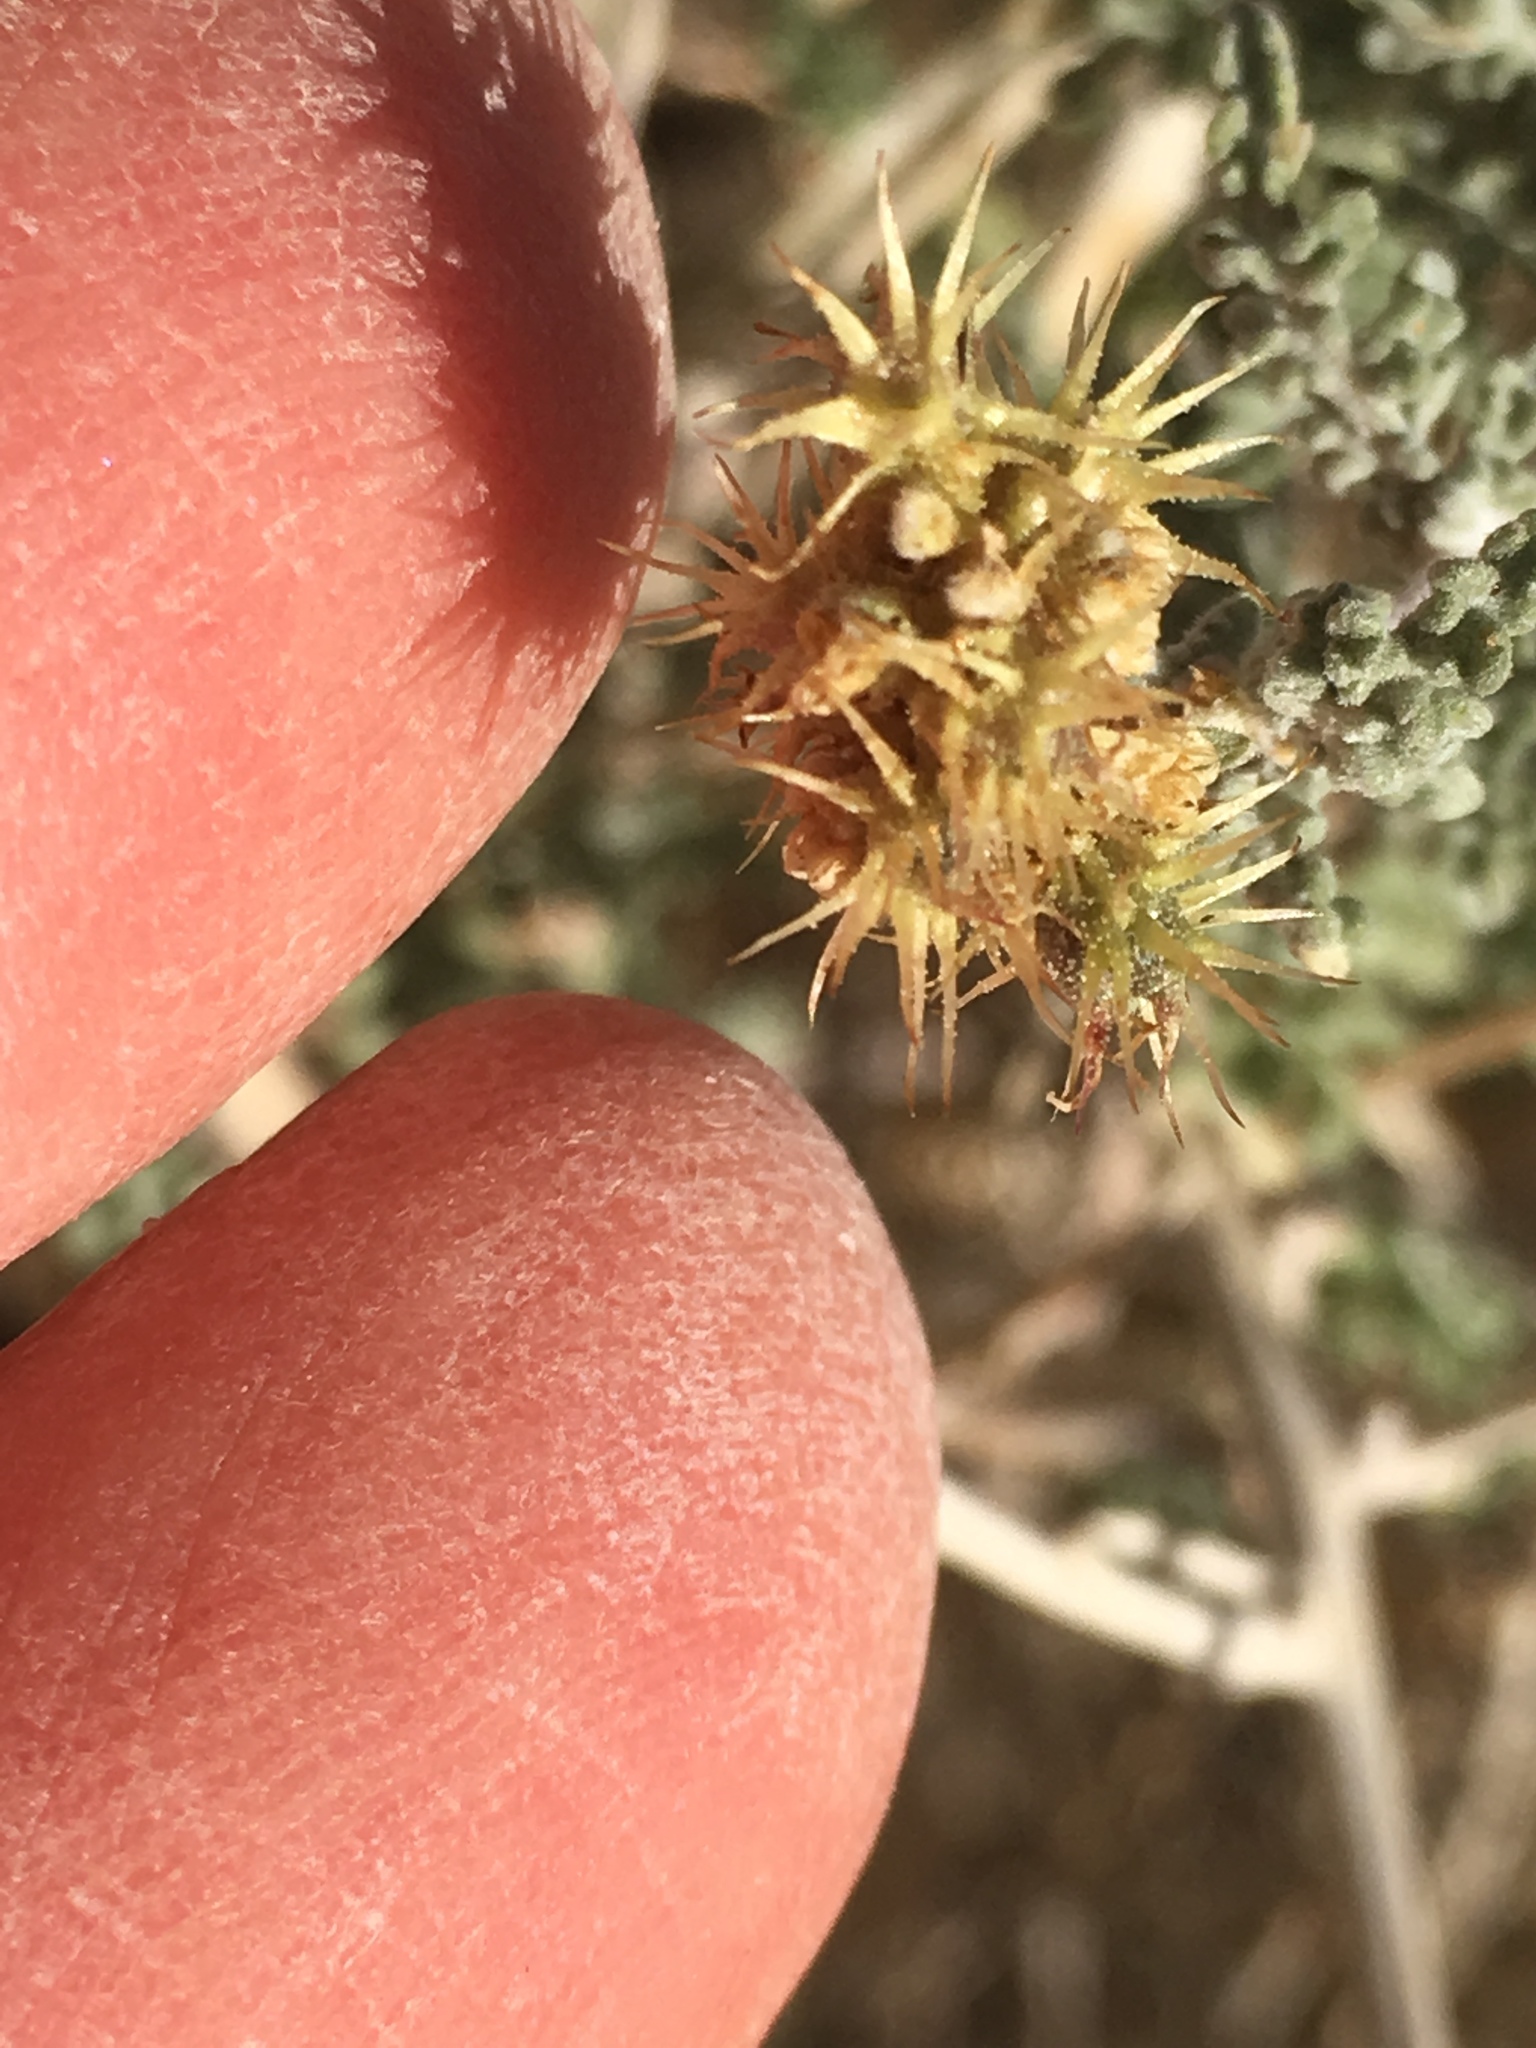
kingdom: Plantae
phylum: Tracheophyta
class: Magnoliopsida
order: Asterales
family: Asteraceae
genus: Ambrosia
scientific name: Ambrosia dumosa
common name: Bur-sage
